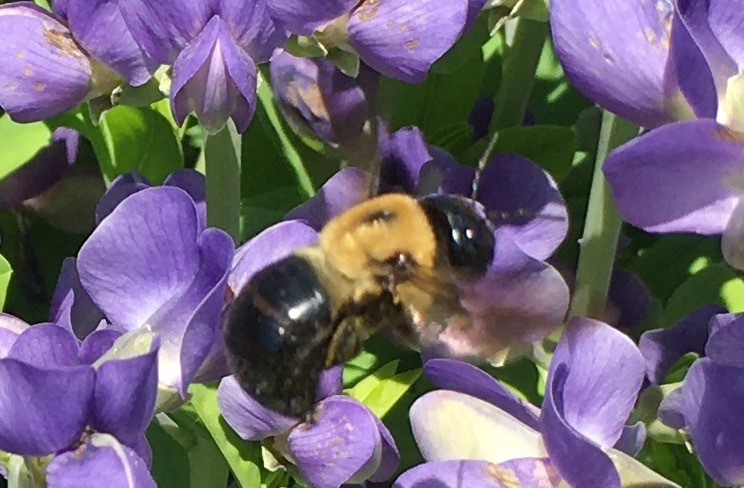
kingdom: Animalia
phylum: Arthropoda
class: Insecta
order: Hymenoptera
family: Apidae
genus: Xylocopa
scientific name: Xylocopa virginica
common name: Carpenter bee
